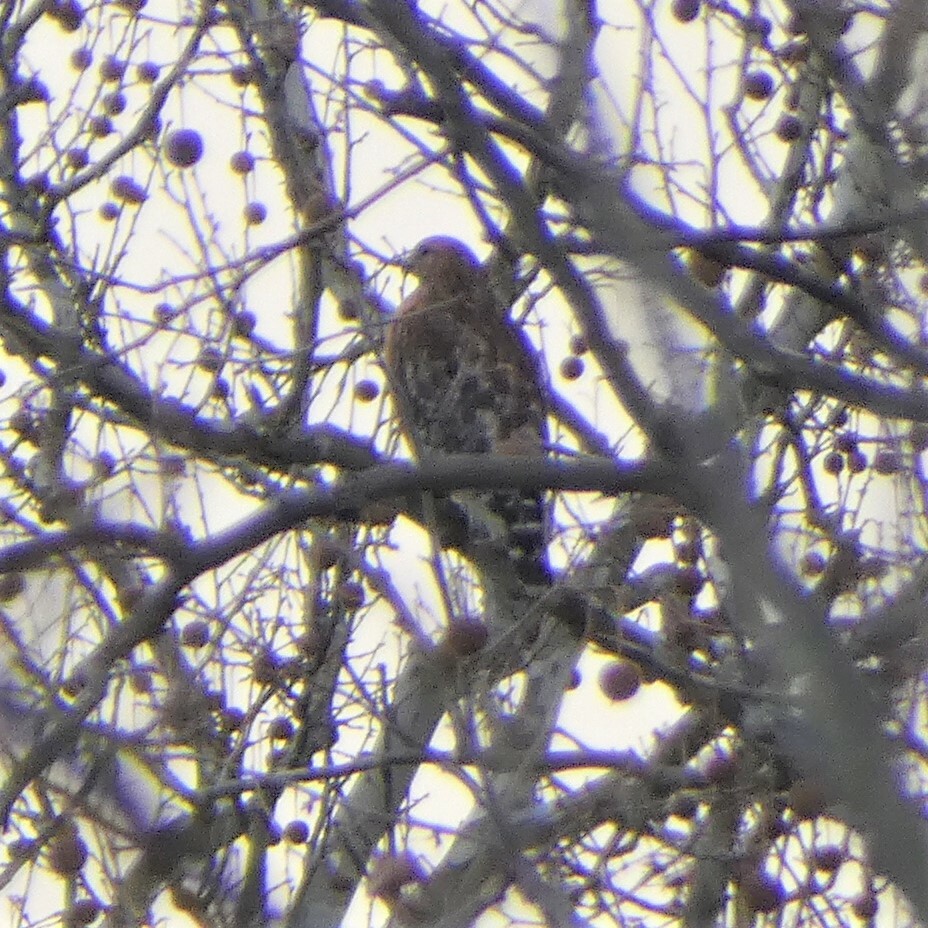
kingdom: Animalia
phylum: Chordata
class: Aves
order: Accipitriformes
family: Accipitridae
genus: Buteo
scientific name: Buteo lineatus
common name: Red-shouldered hawk
